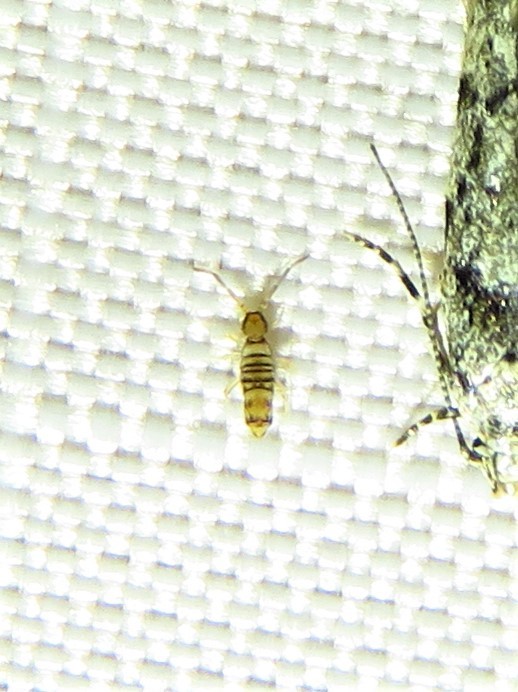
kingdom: Animalia
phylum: Arthropoda
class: Collembola
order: Entomobryomorpha
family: Entomobryidae
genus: Entomobrya
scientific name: Entomobrya atrocincta
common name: Springtail
